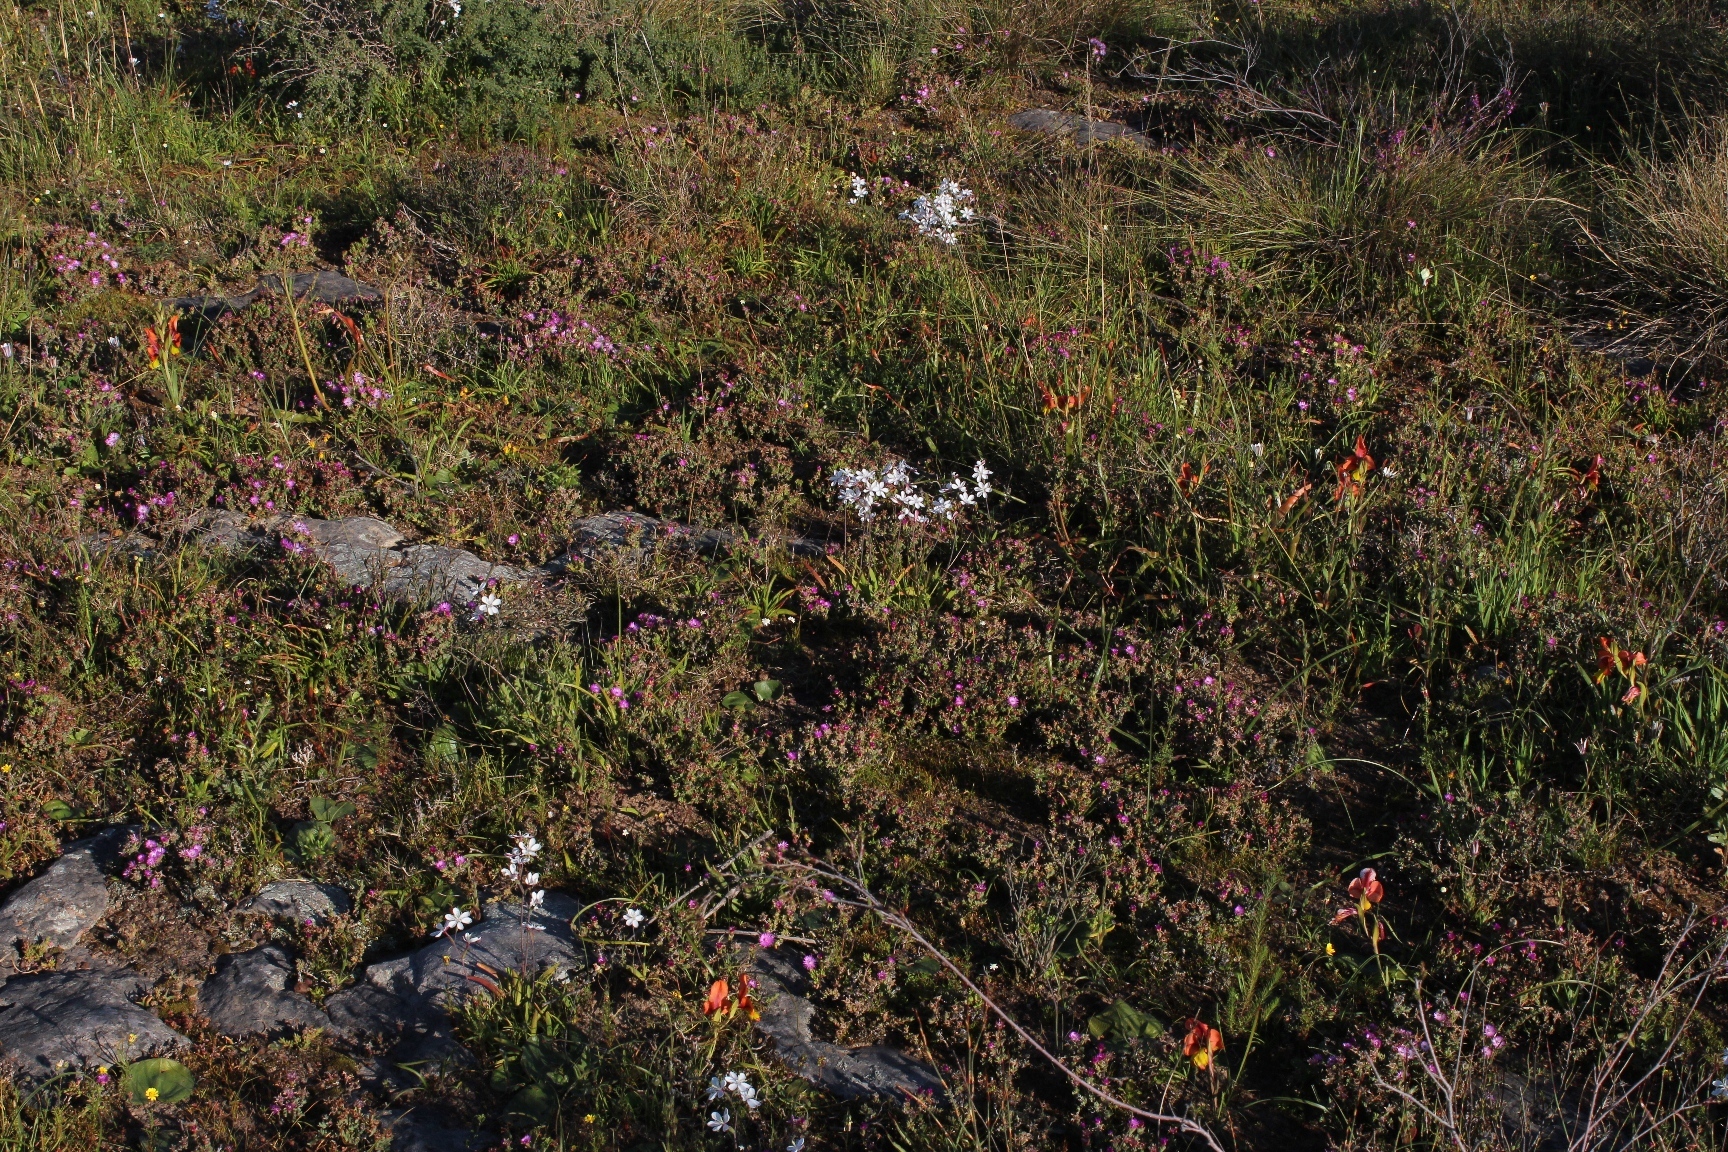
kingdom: Plantae
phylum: Tracheophyta
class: Liliopsida
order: Asparagales
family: Iridaceae
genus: Gladiolus
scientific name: Gladiolus alatus
